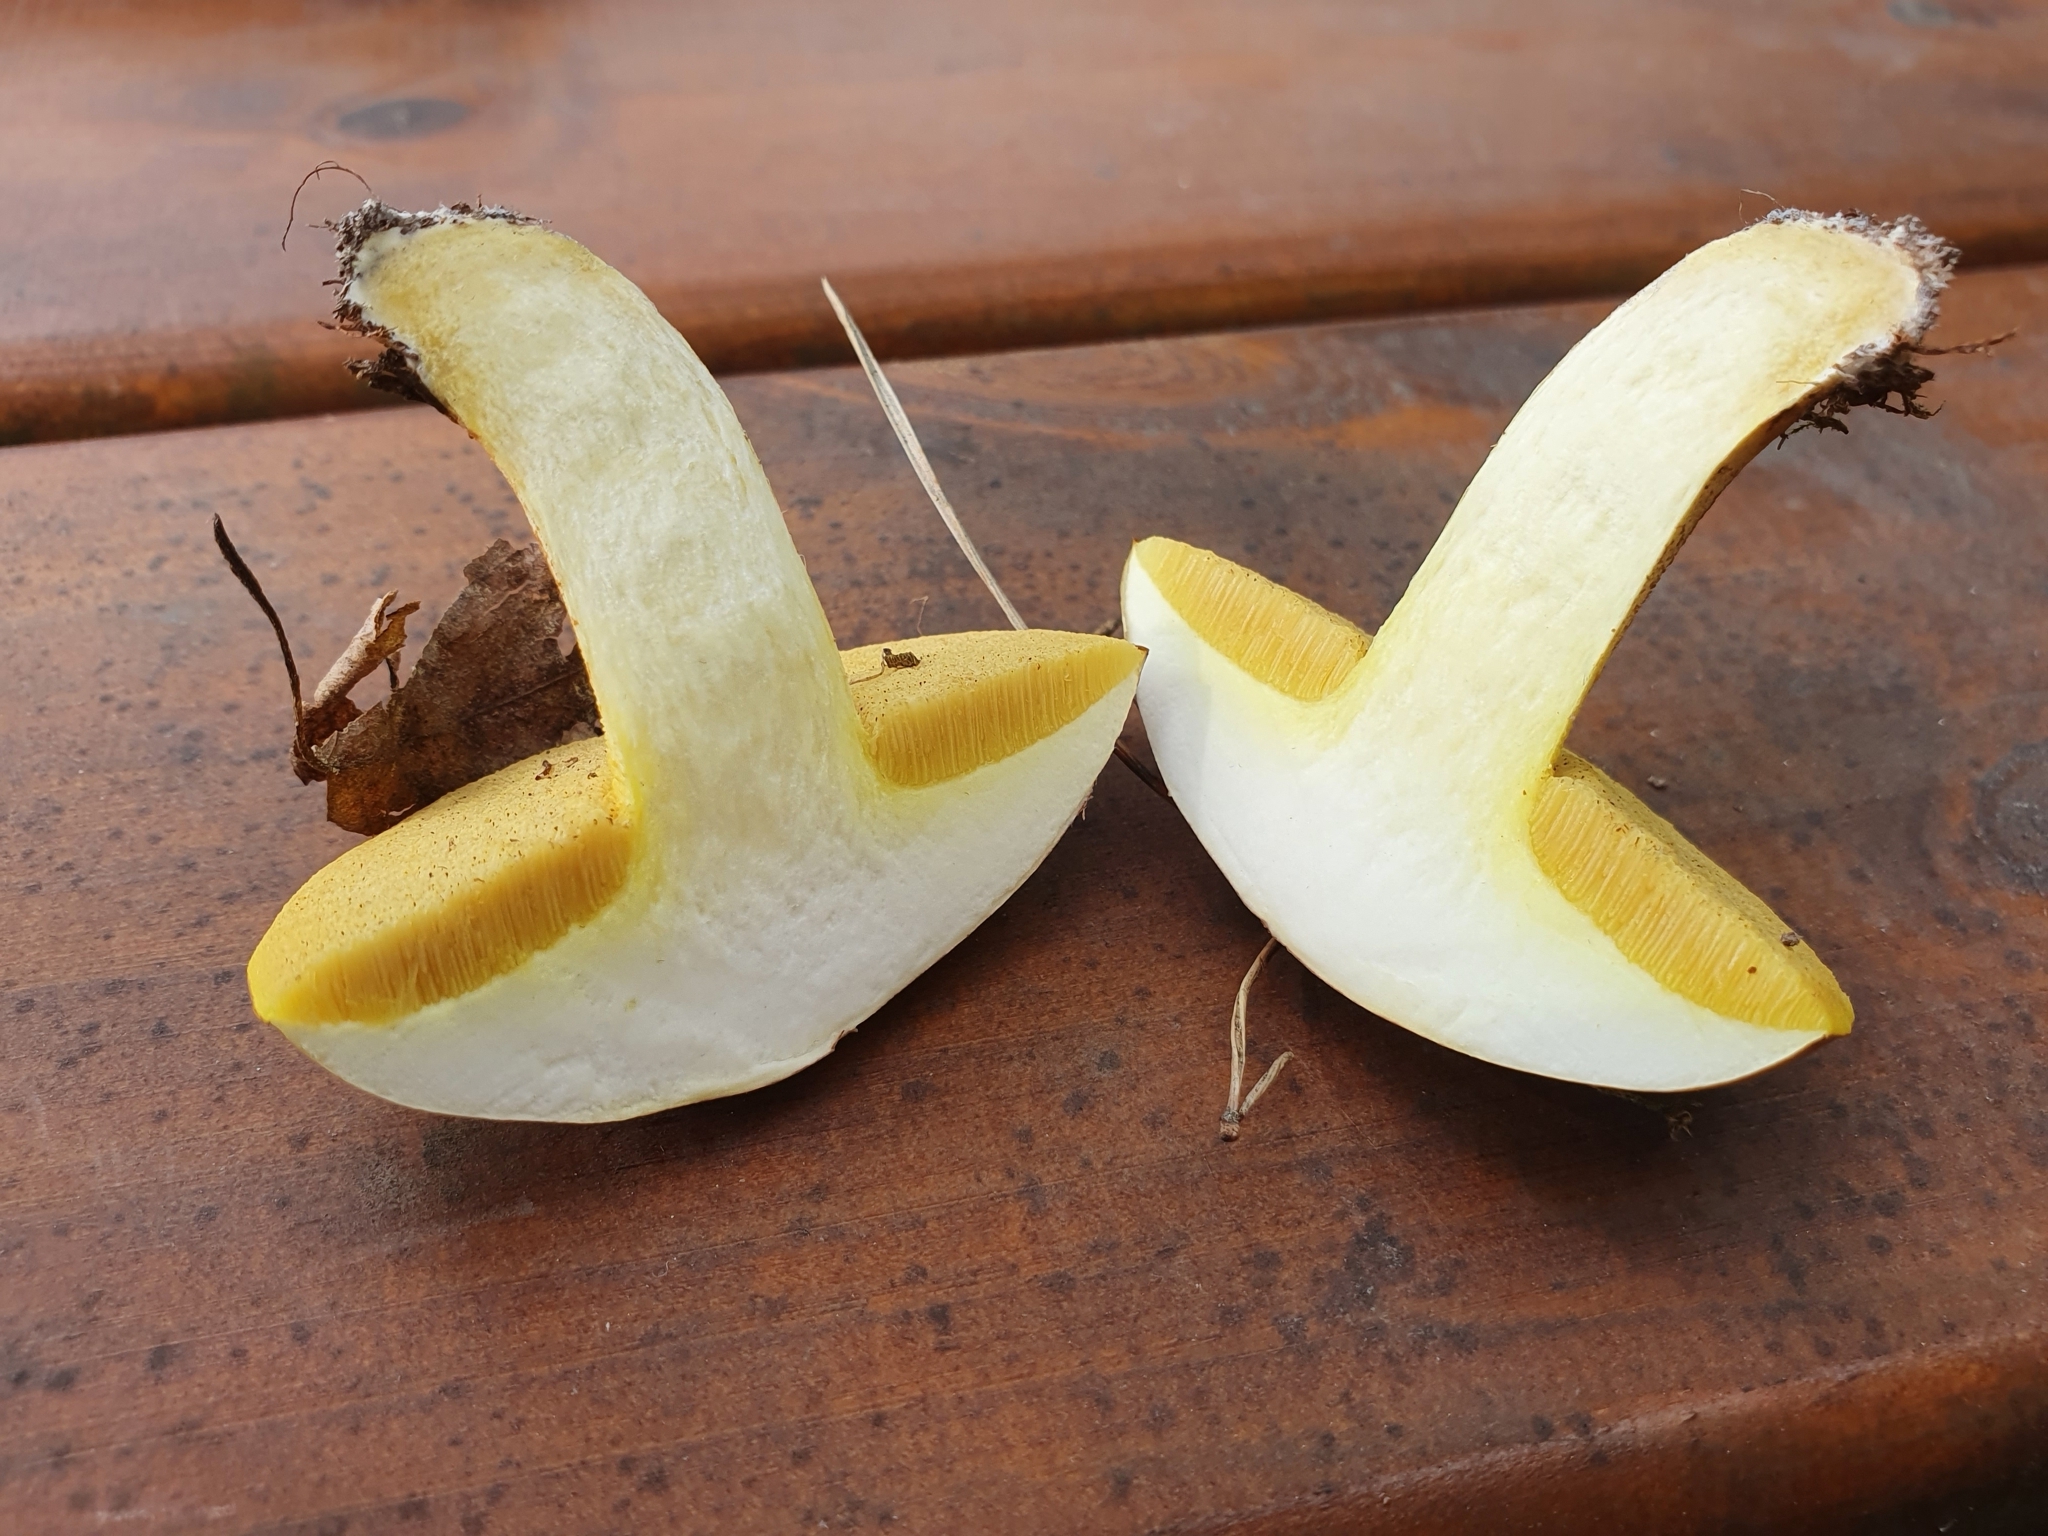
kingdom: Fungi
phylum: Basidiomycota
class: Agaricomycetes
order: Boletales
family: Suillaceae
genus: Suillus
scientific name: Suillus granulatus
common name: Weeping bolete
